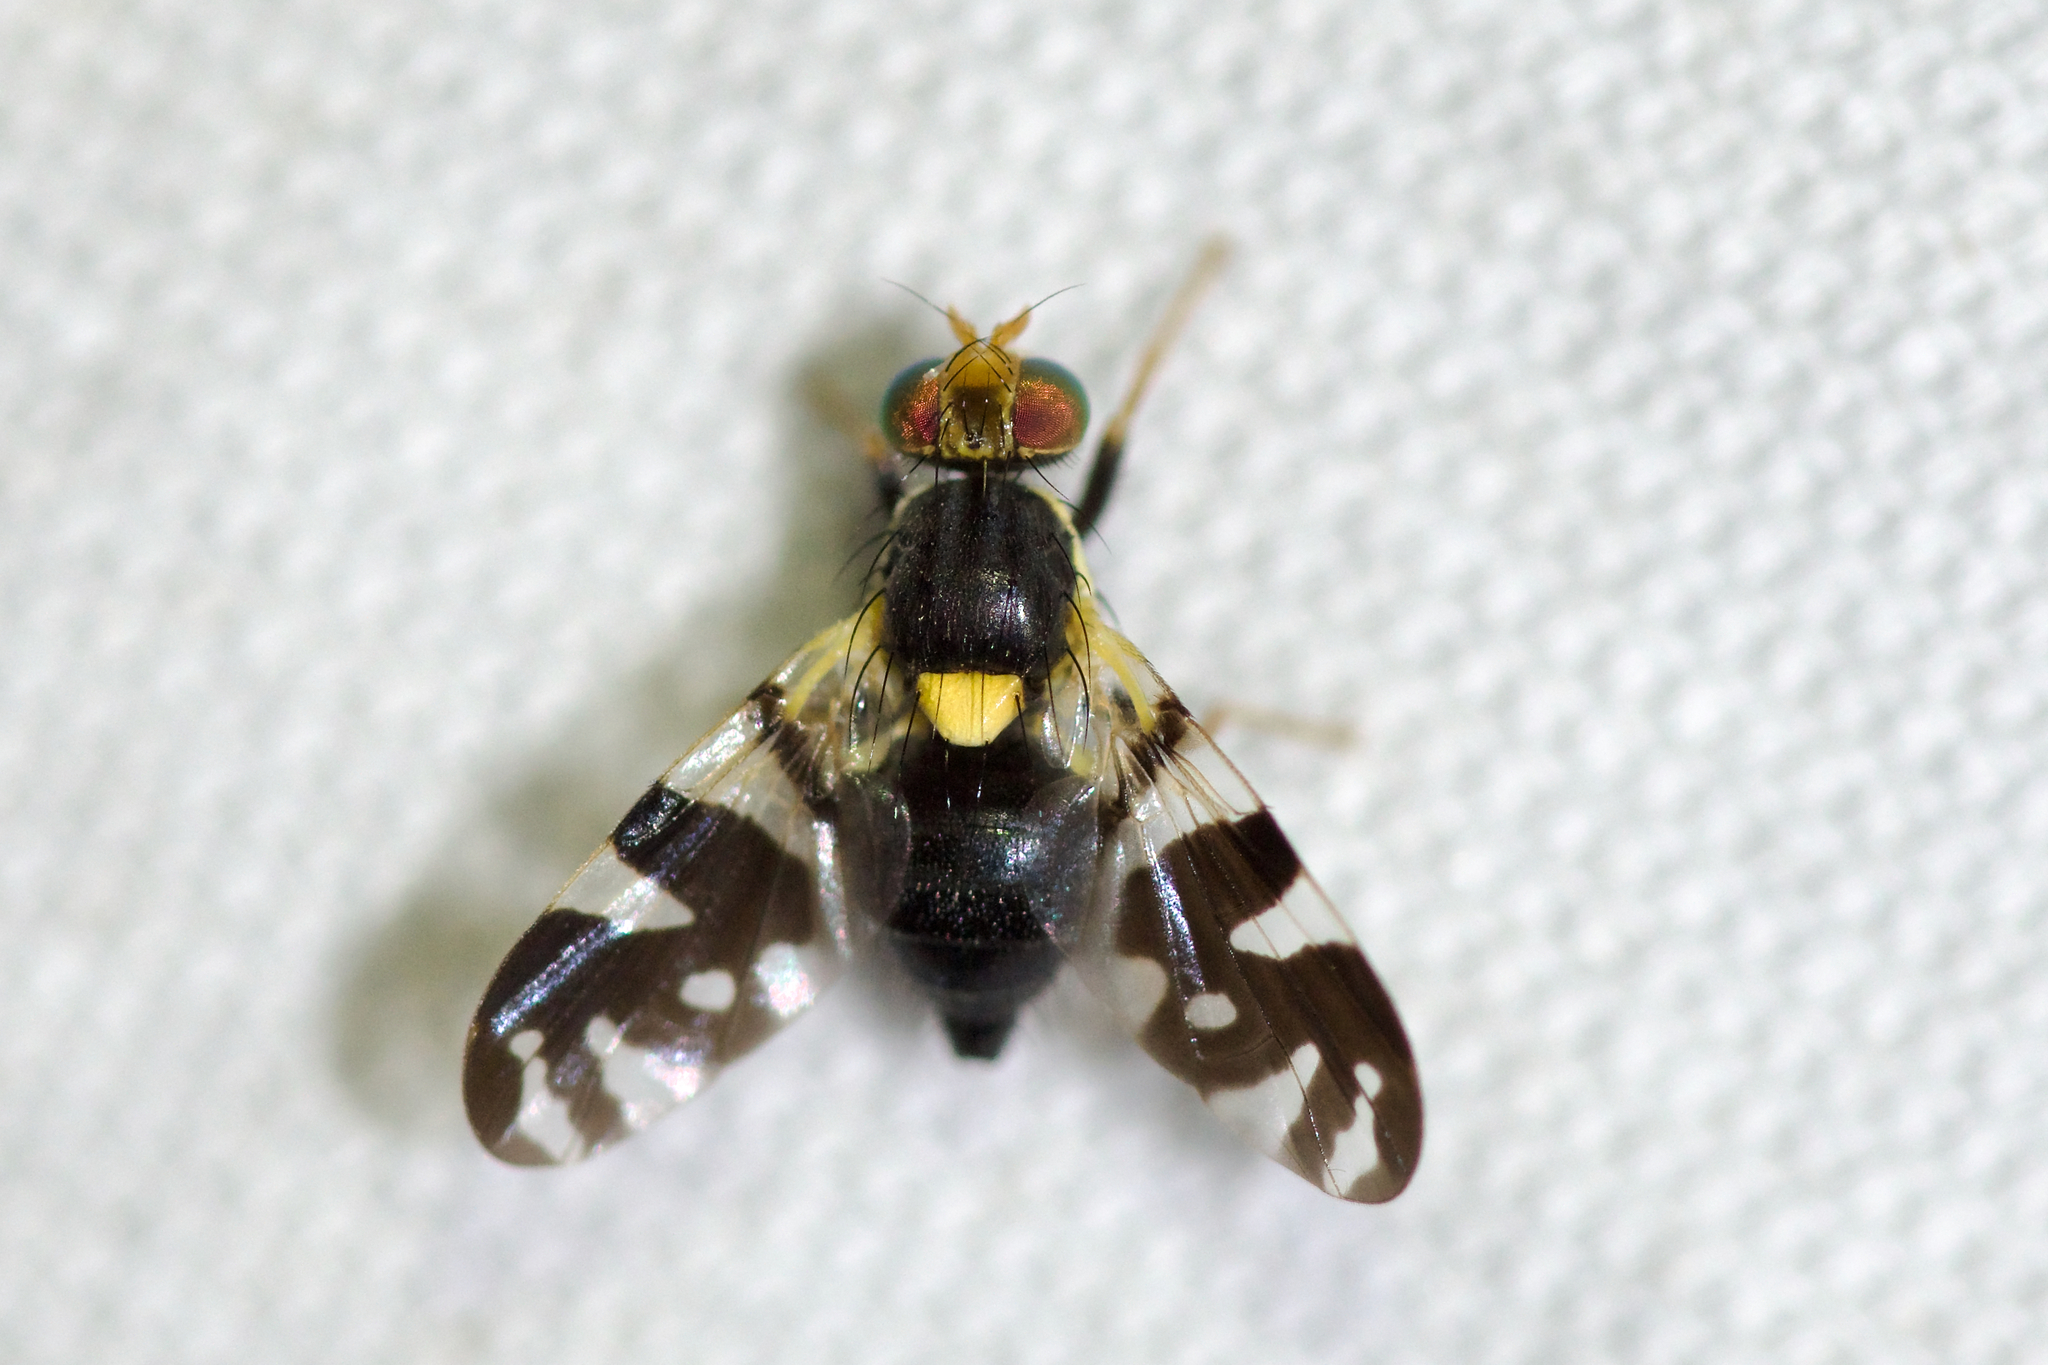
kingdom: Animalia
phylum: Arthropoda
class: Insecta
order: Diptera
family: Tephritidae
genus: Rhagoletis
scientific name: Rhagoletis fausta
